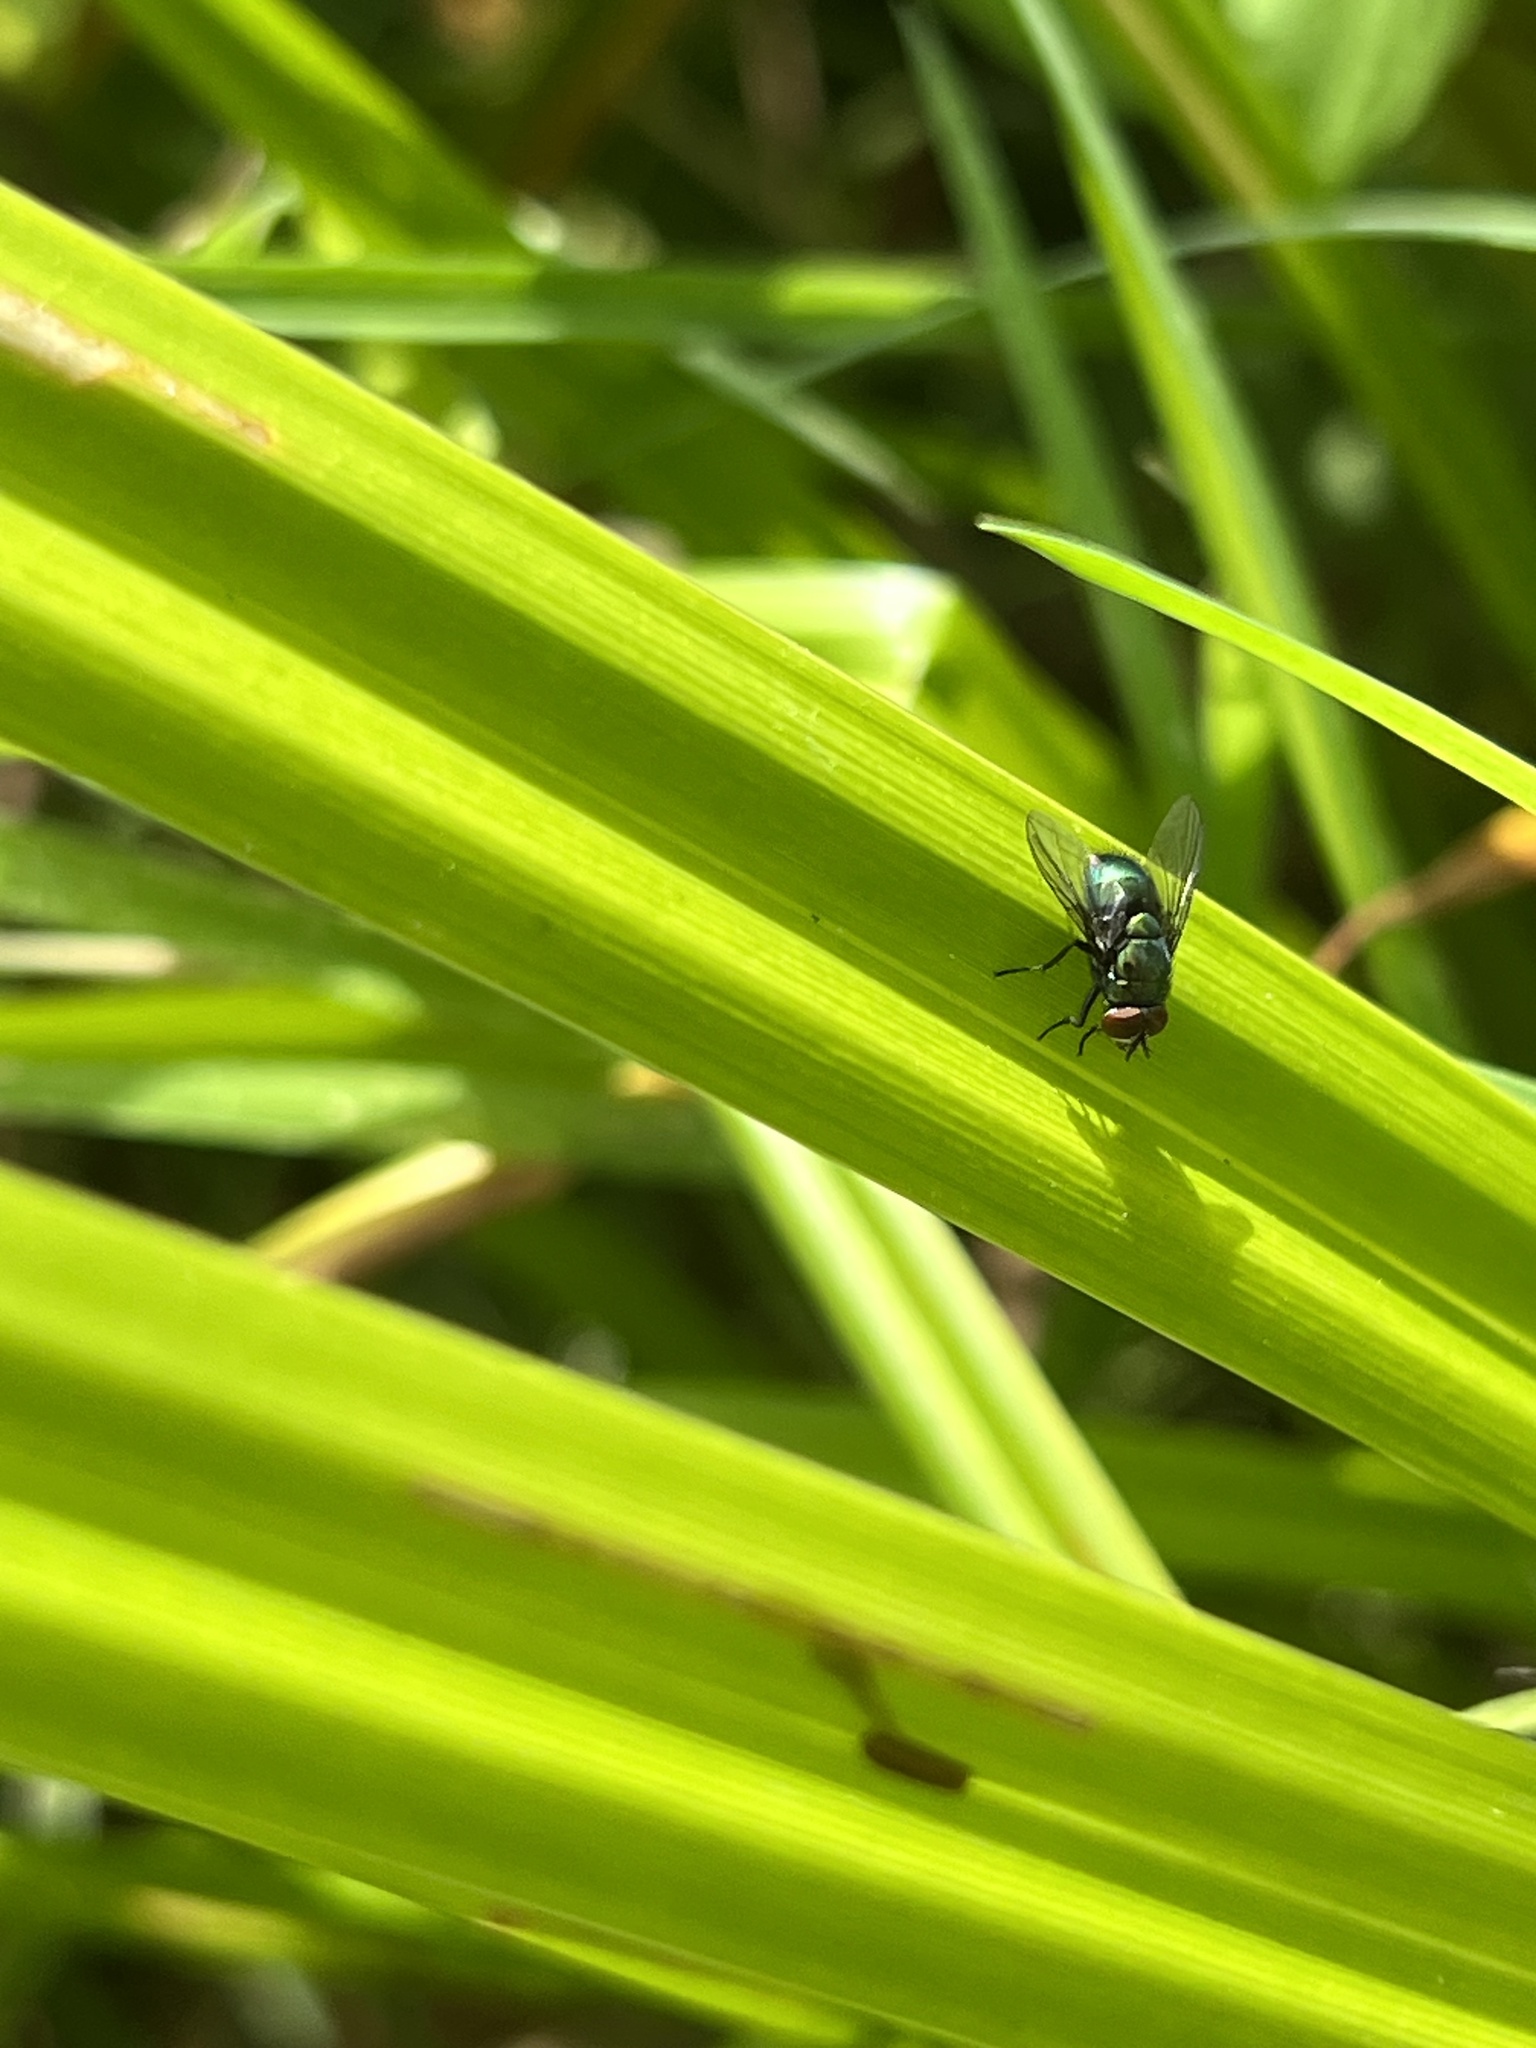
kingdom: Animalia
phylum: Arthropoda
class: Insecta
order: Diptera
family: Calliphoridae
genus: Lucilia
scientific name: Lucilia
